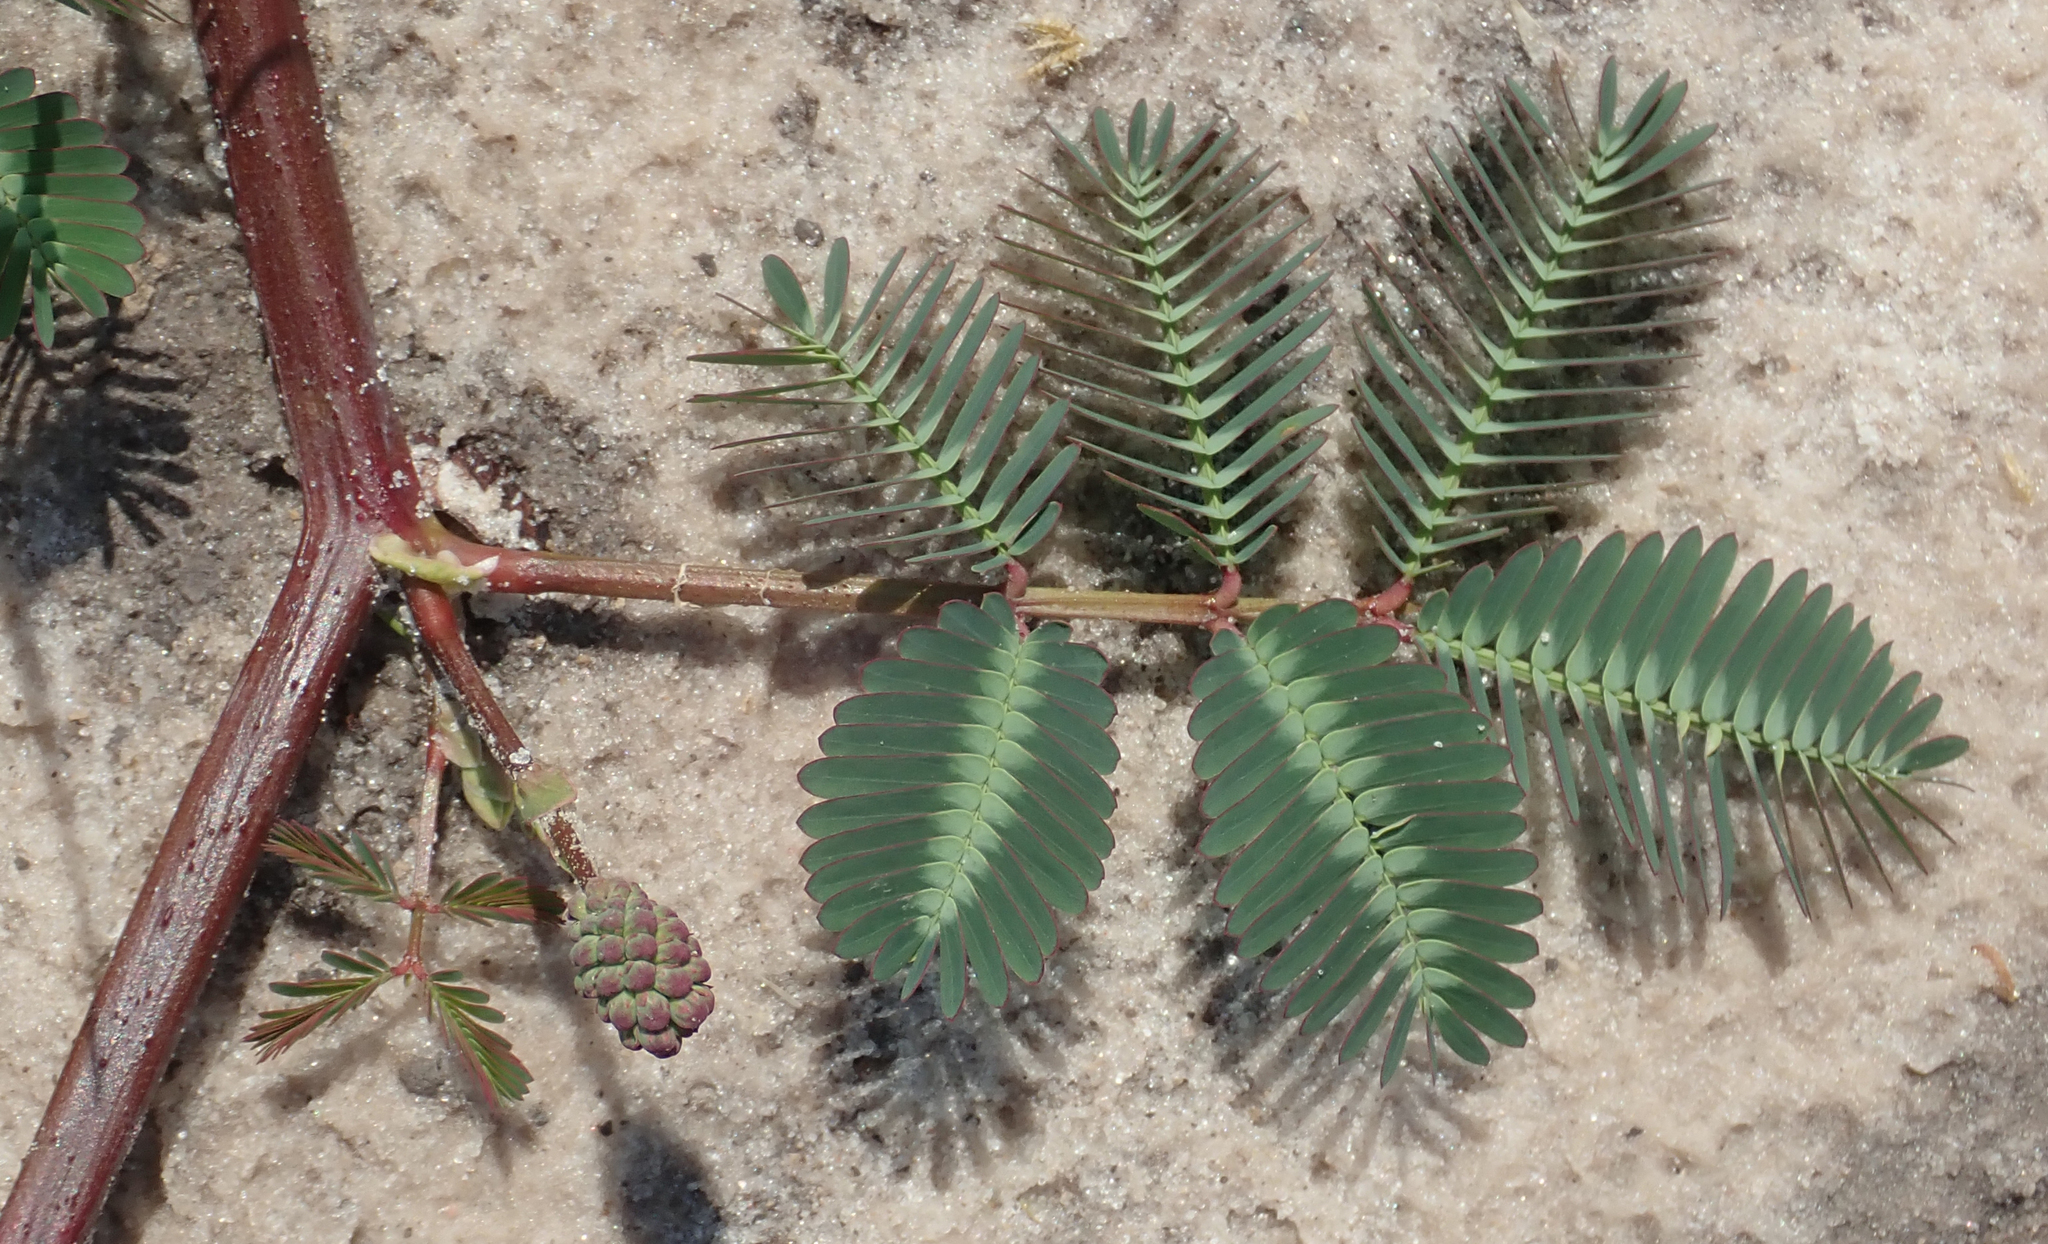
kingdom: Plantae
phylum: Tracheophyta
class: Magnoliopsida
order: Fabales
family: Fabaceae
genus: Neptunia
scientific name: Neptunia prostrata
